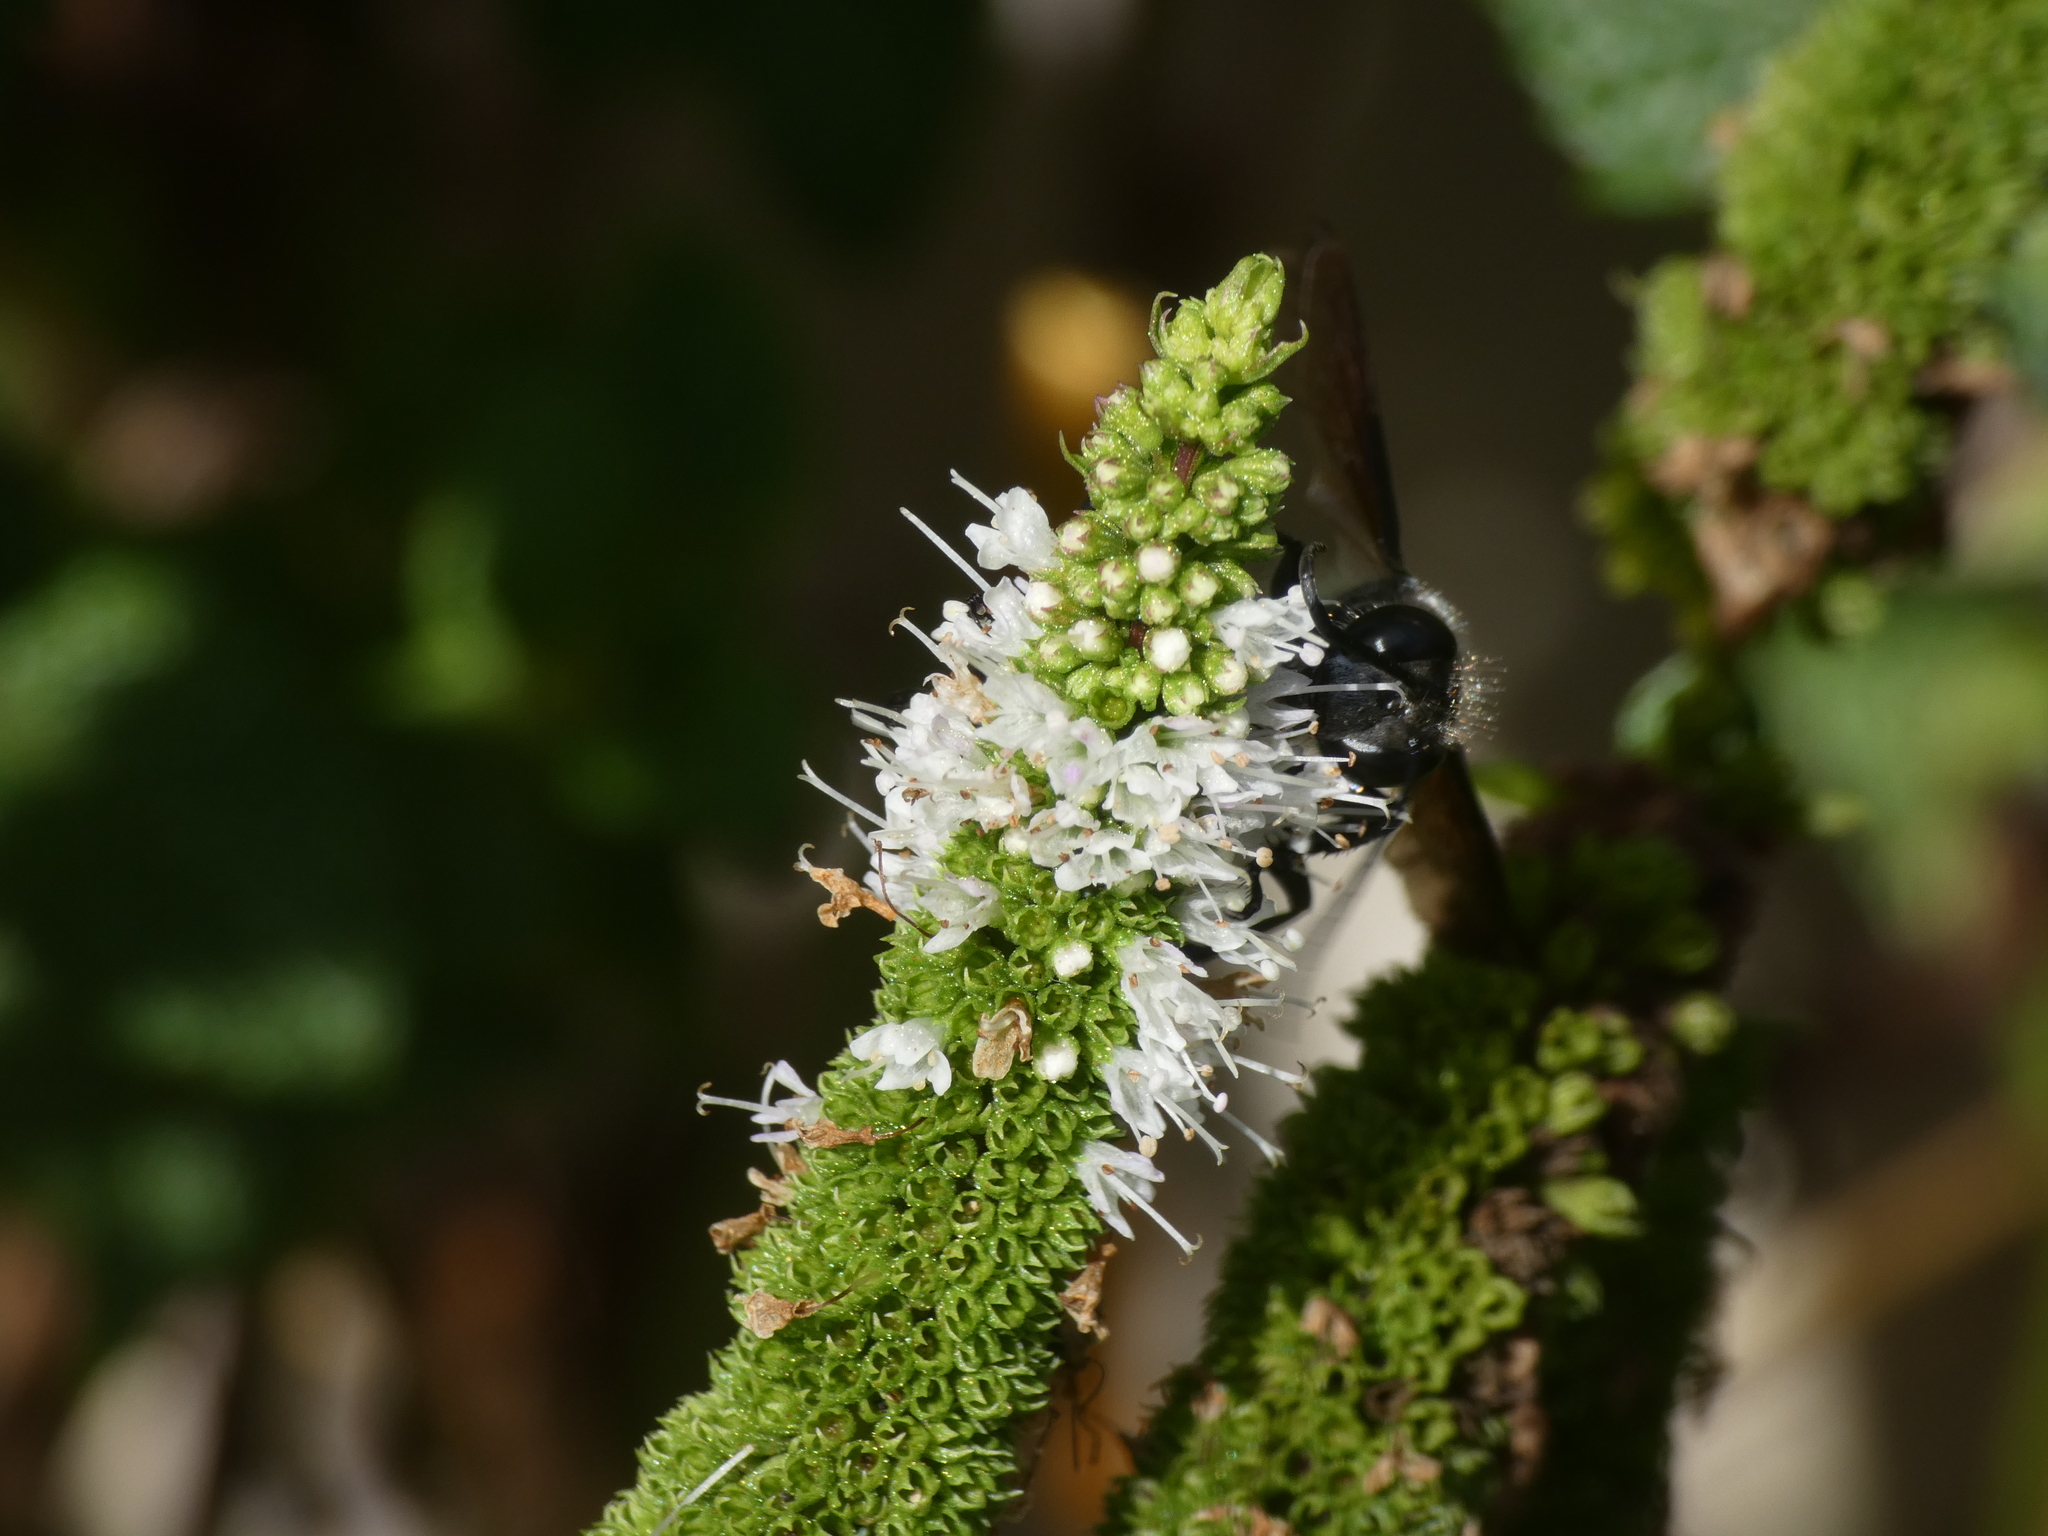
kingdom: Animalia
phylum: Arthropoda
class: Insecta
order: Hymenoptera
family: Sphecidae
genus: Isodontia
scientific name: Isodontia mexicana
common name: Mud dauber
